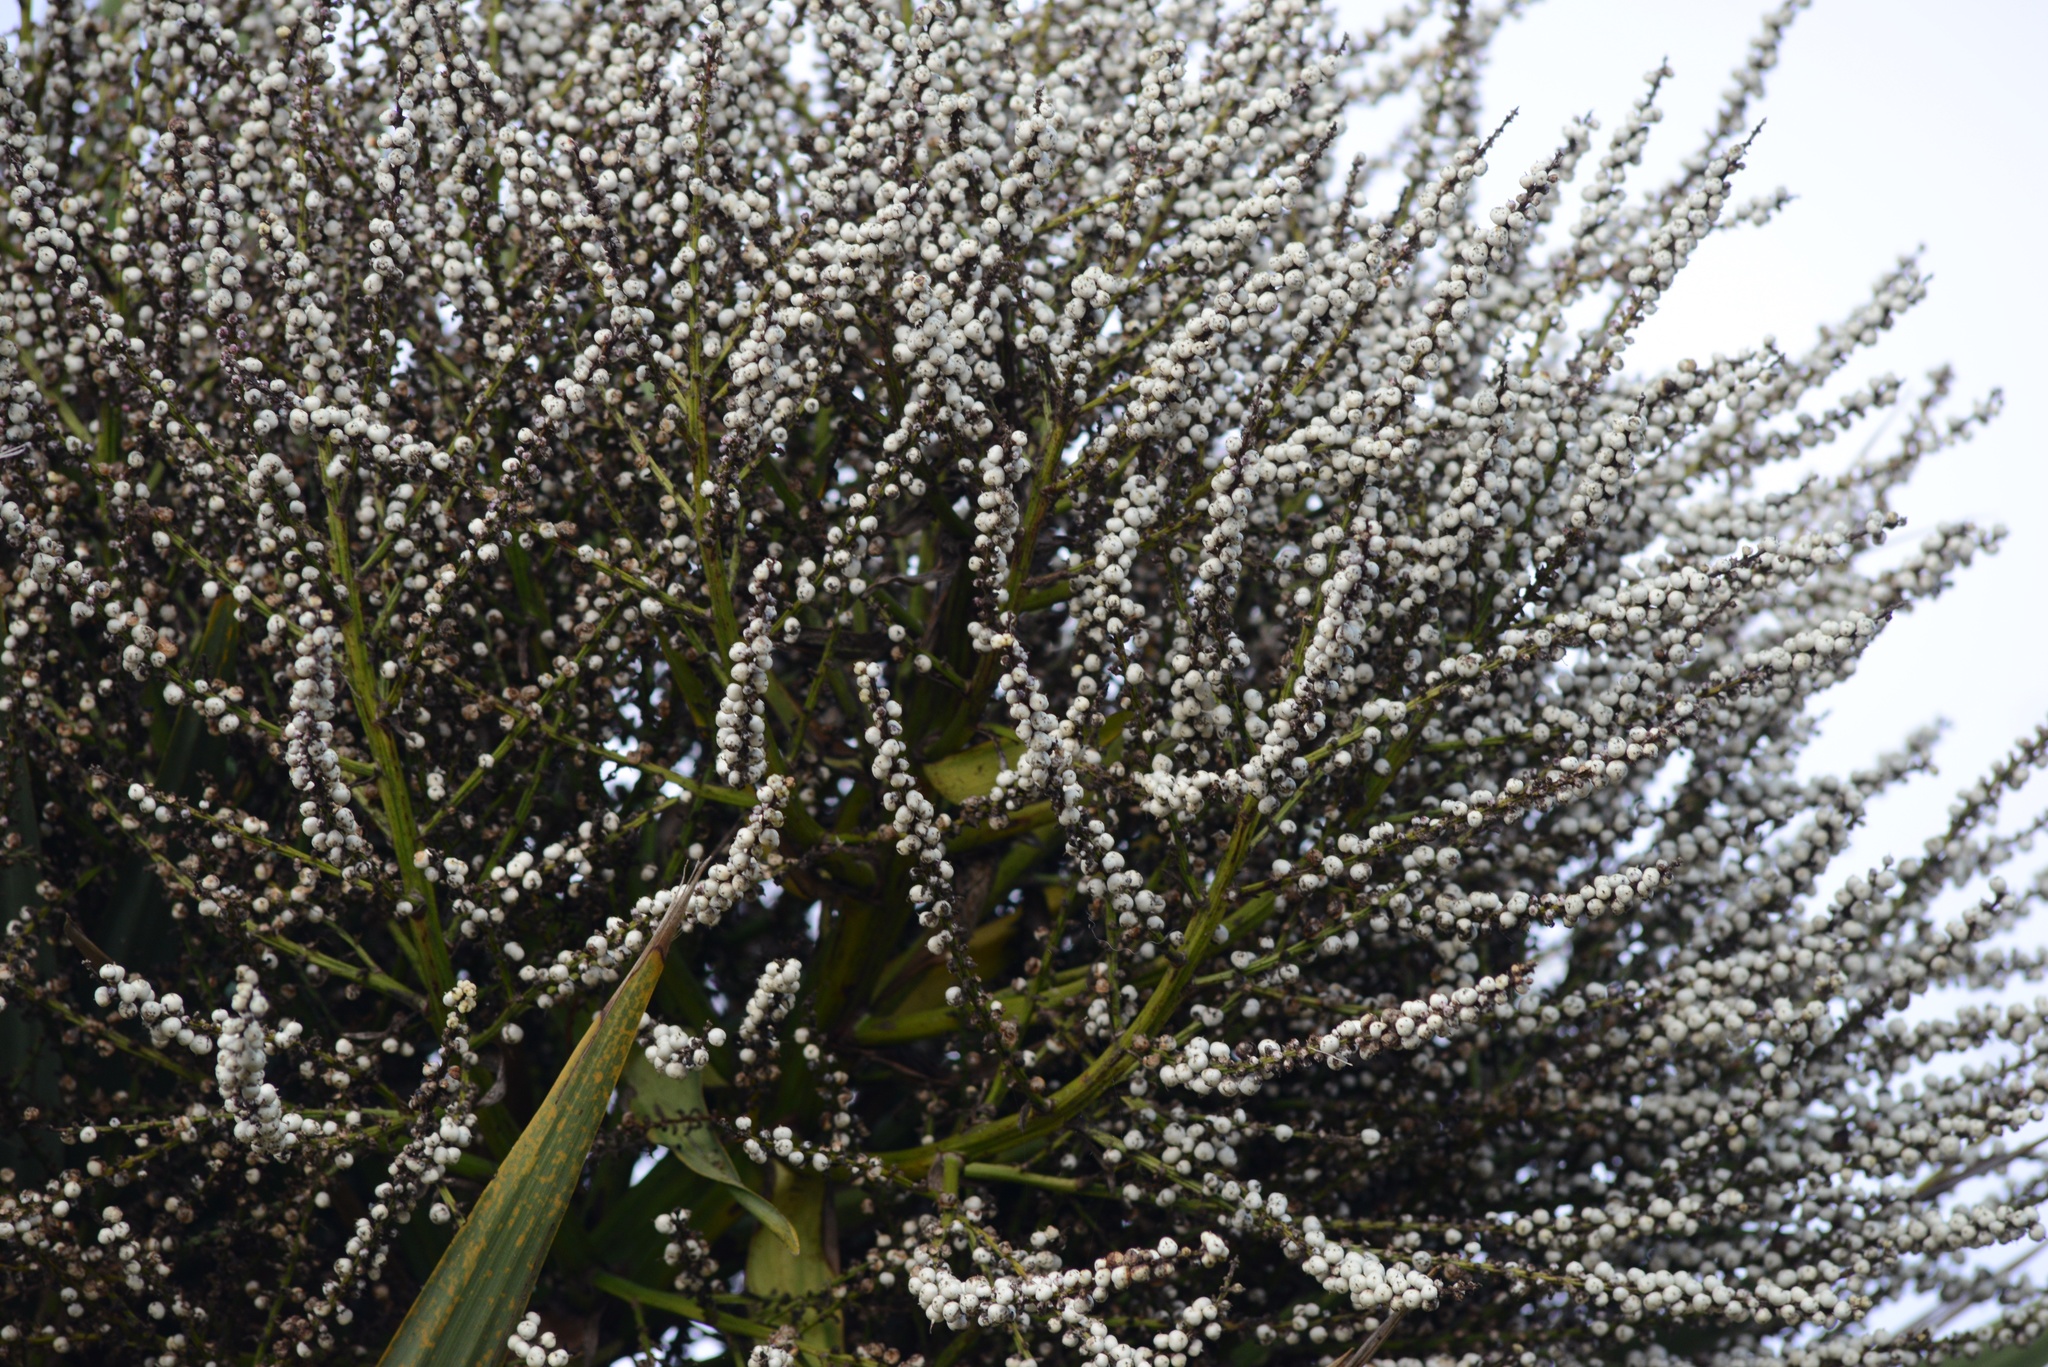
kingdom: Plantae
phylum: Tracheophyta
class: Liliopsida
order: Asparagales
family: Asparagaceae
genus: Cordyline
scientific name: Cordyline australis
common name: Cabbage-palm
